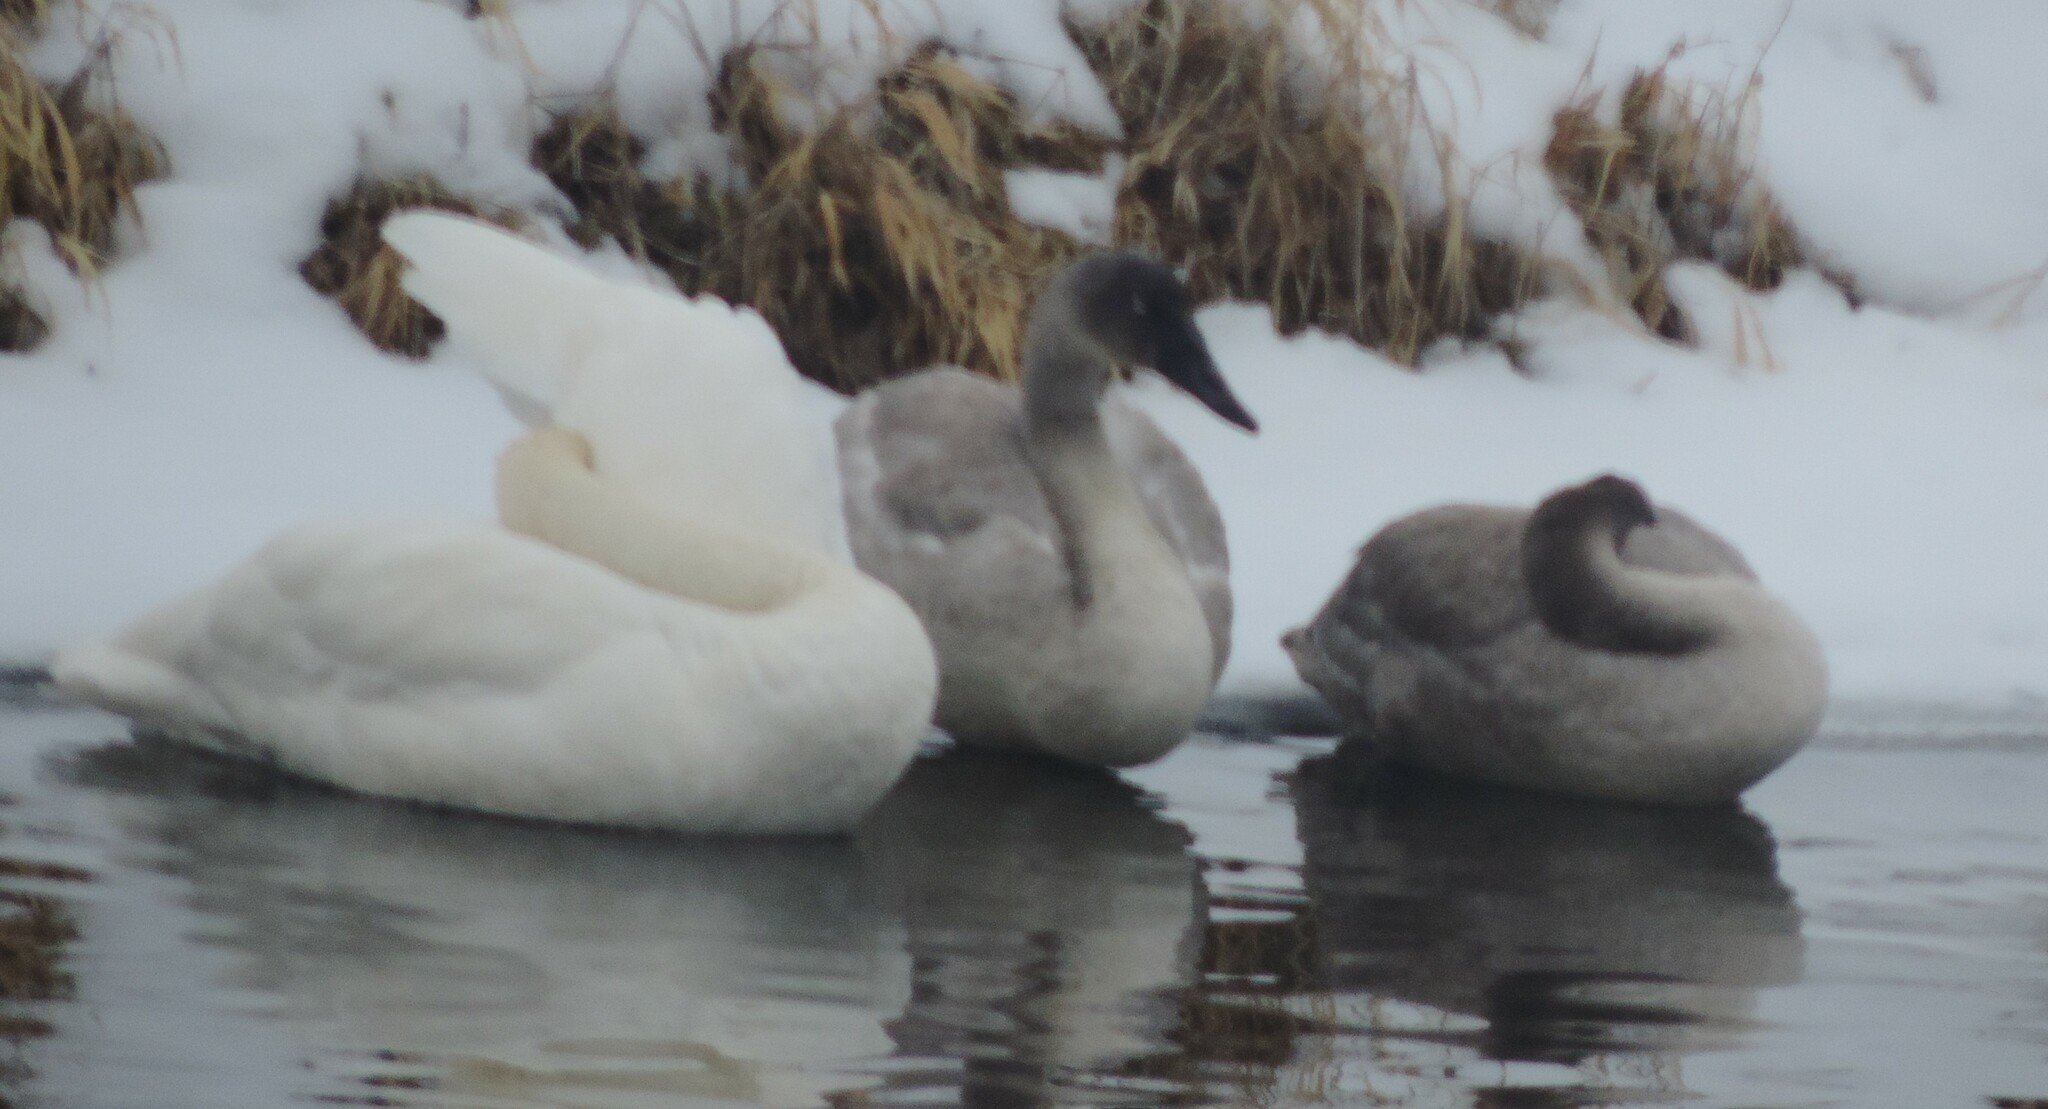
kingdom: Animalia
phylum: Chordata
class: Aves
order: Anseriformes
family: Anatidae
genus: Cygnus
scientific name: Cygnus buccinator
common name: Trumpeter swan
